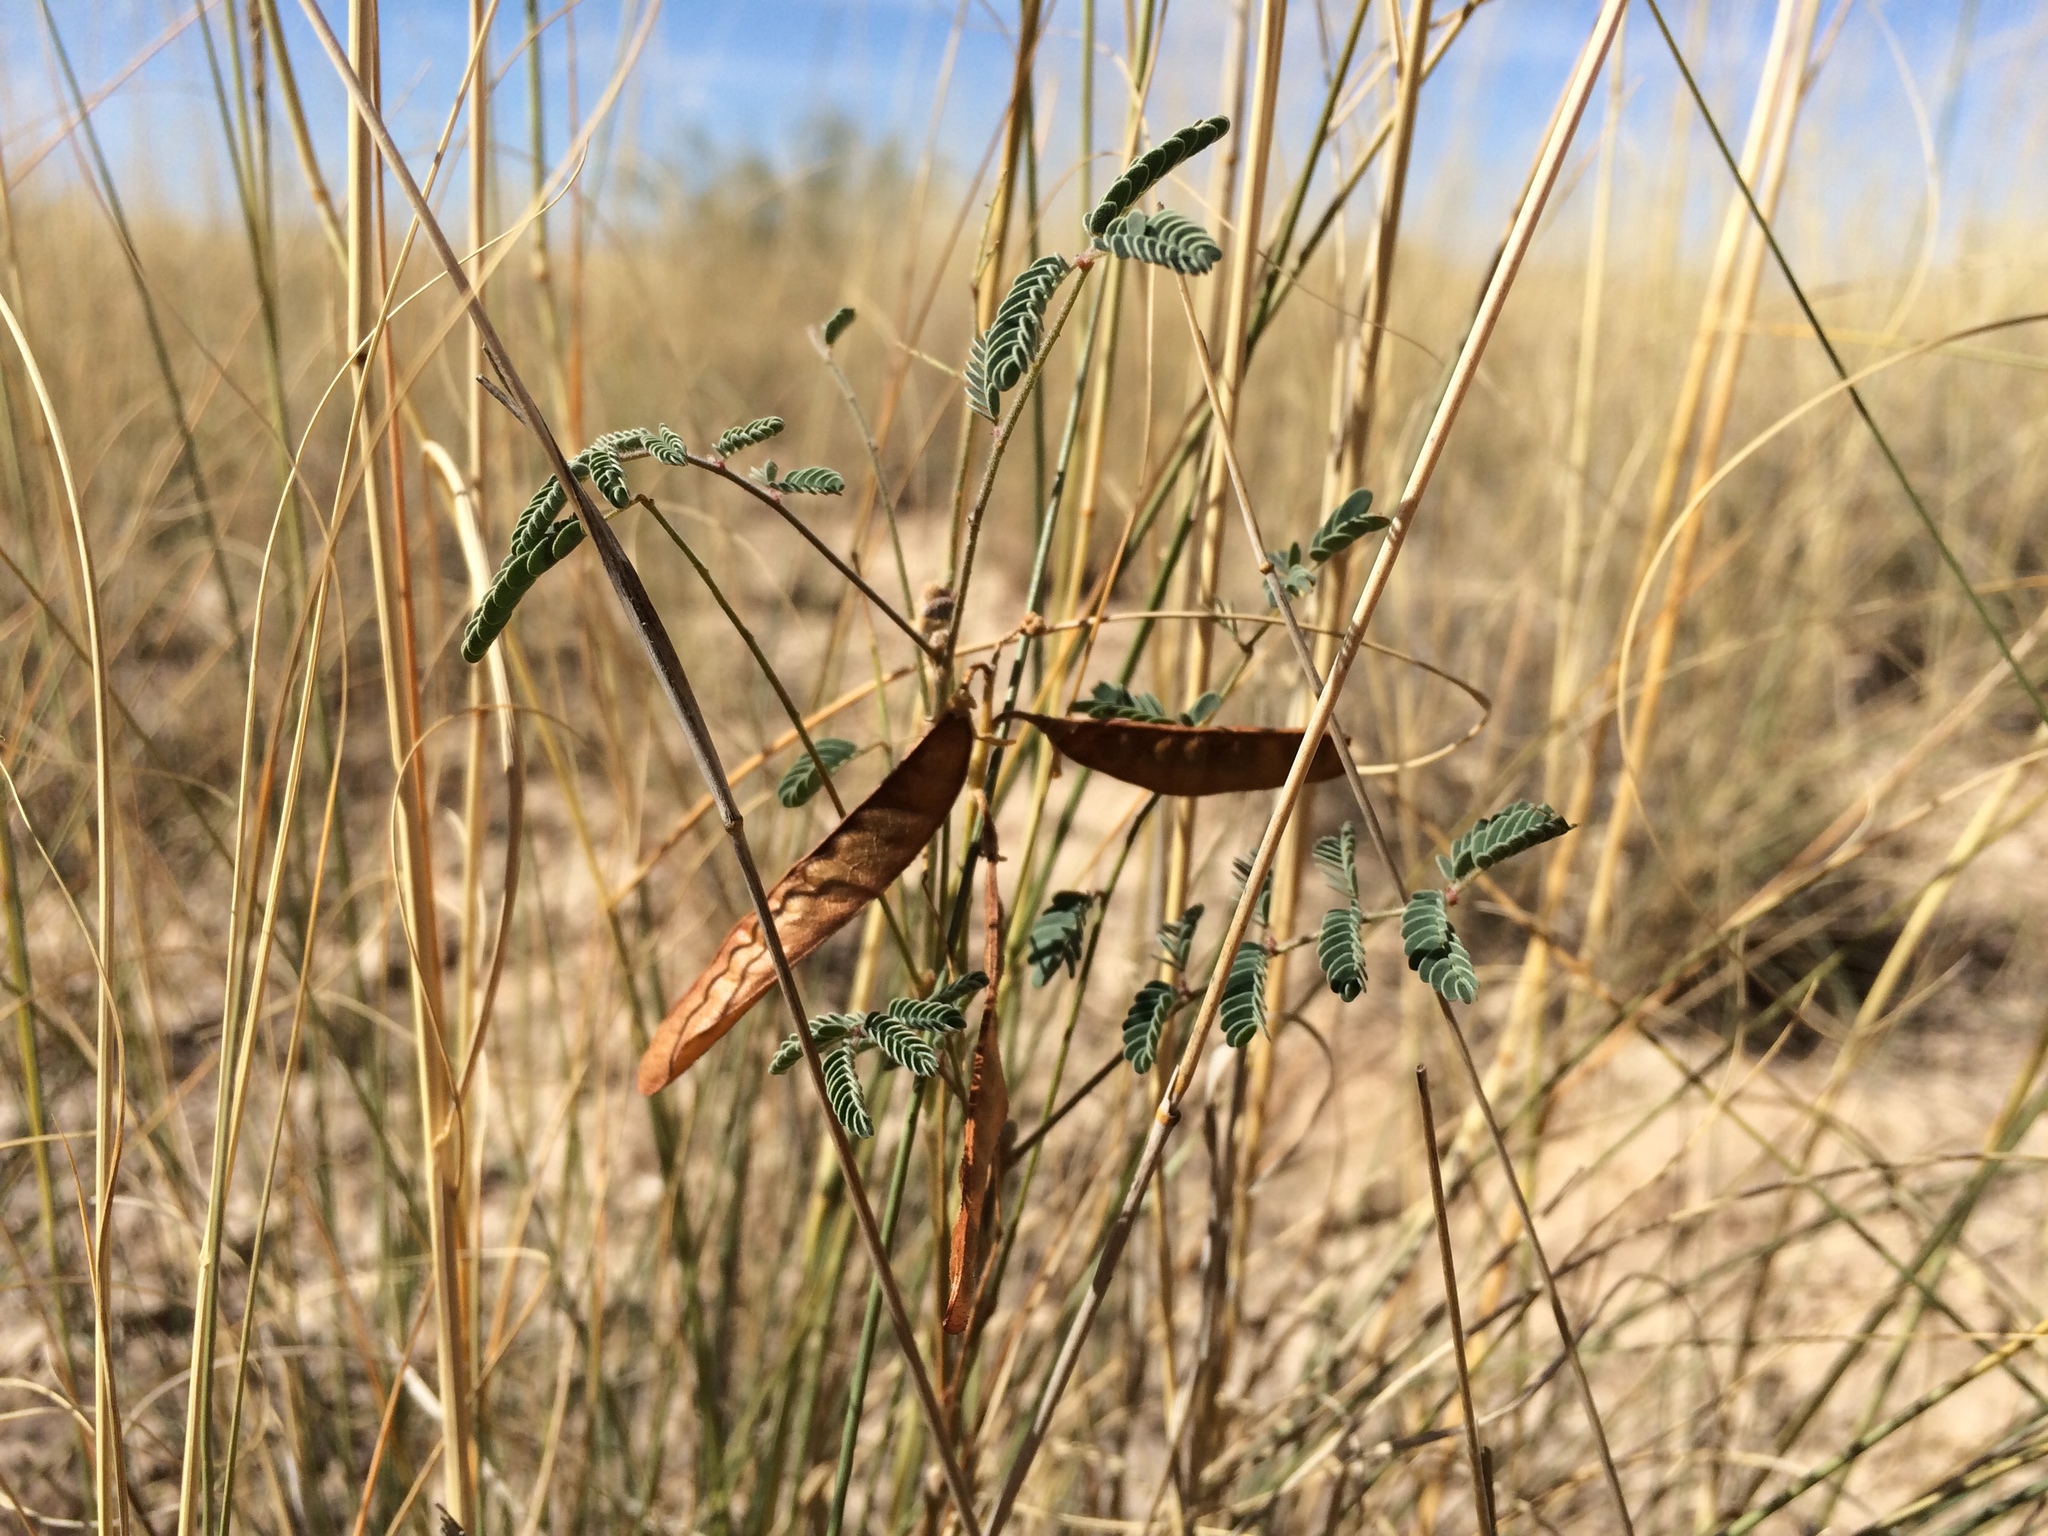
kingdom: Plantae
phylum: Tracheophyta
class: Magnoliopsida
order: Fabales
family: Fabaceae
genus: Hoffmannseggia
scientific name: Hoffmannseggia glauca
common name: Pignut
